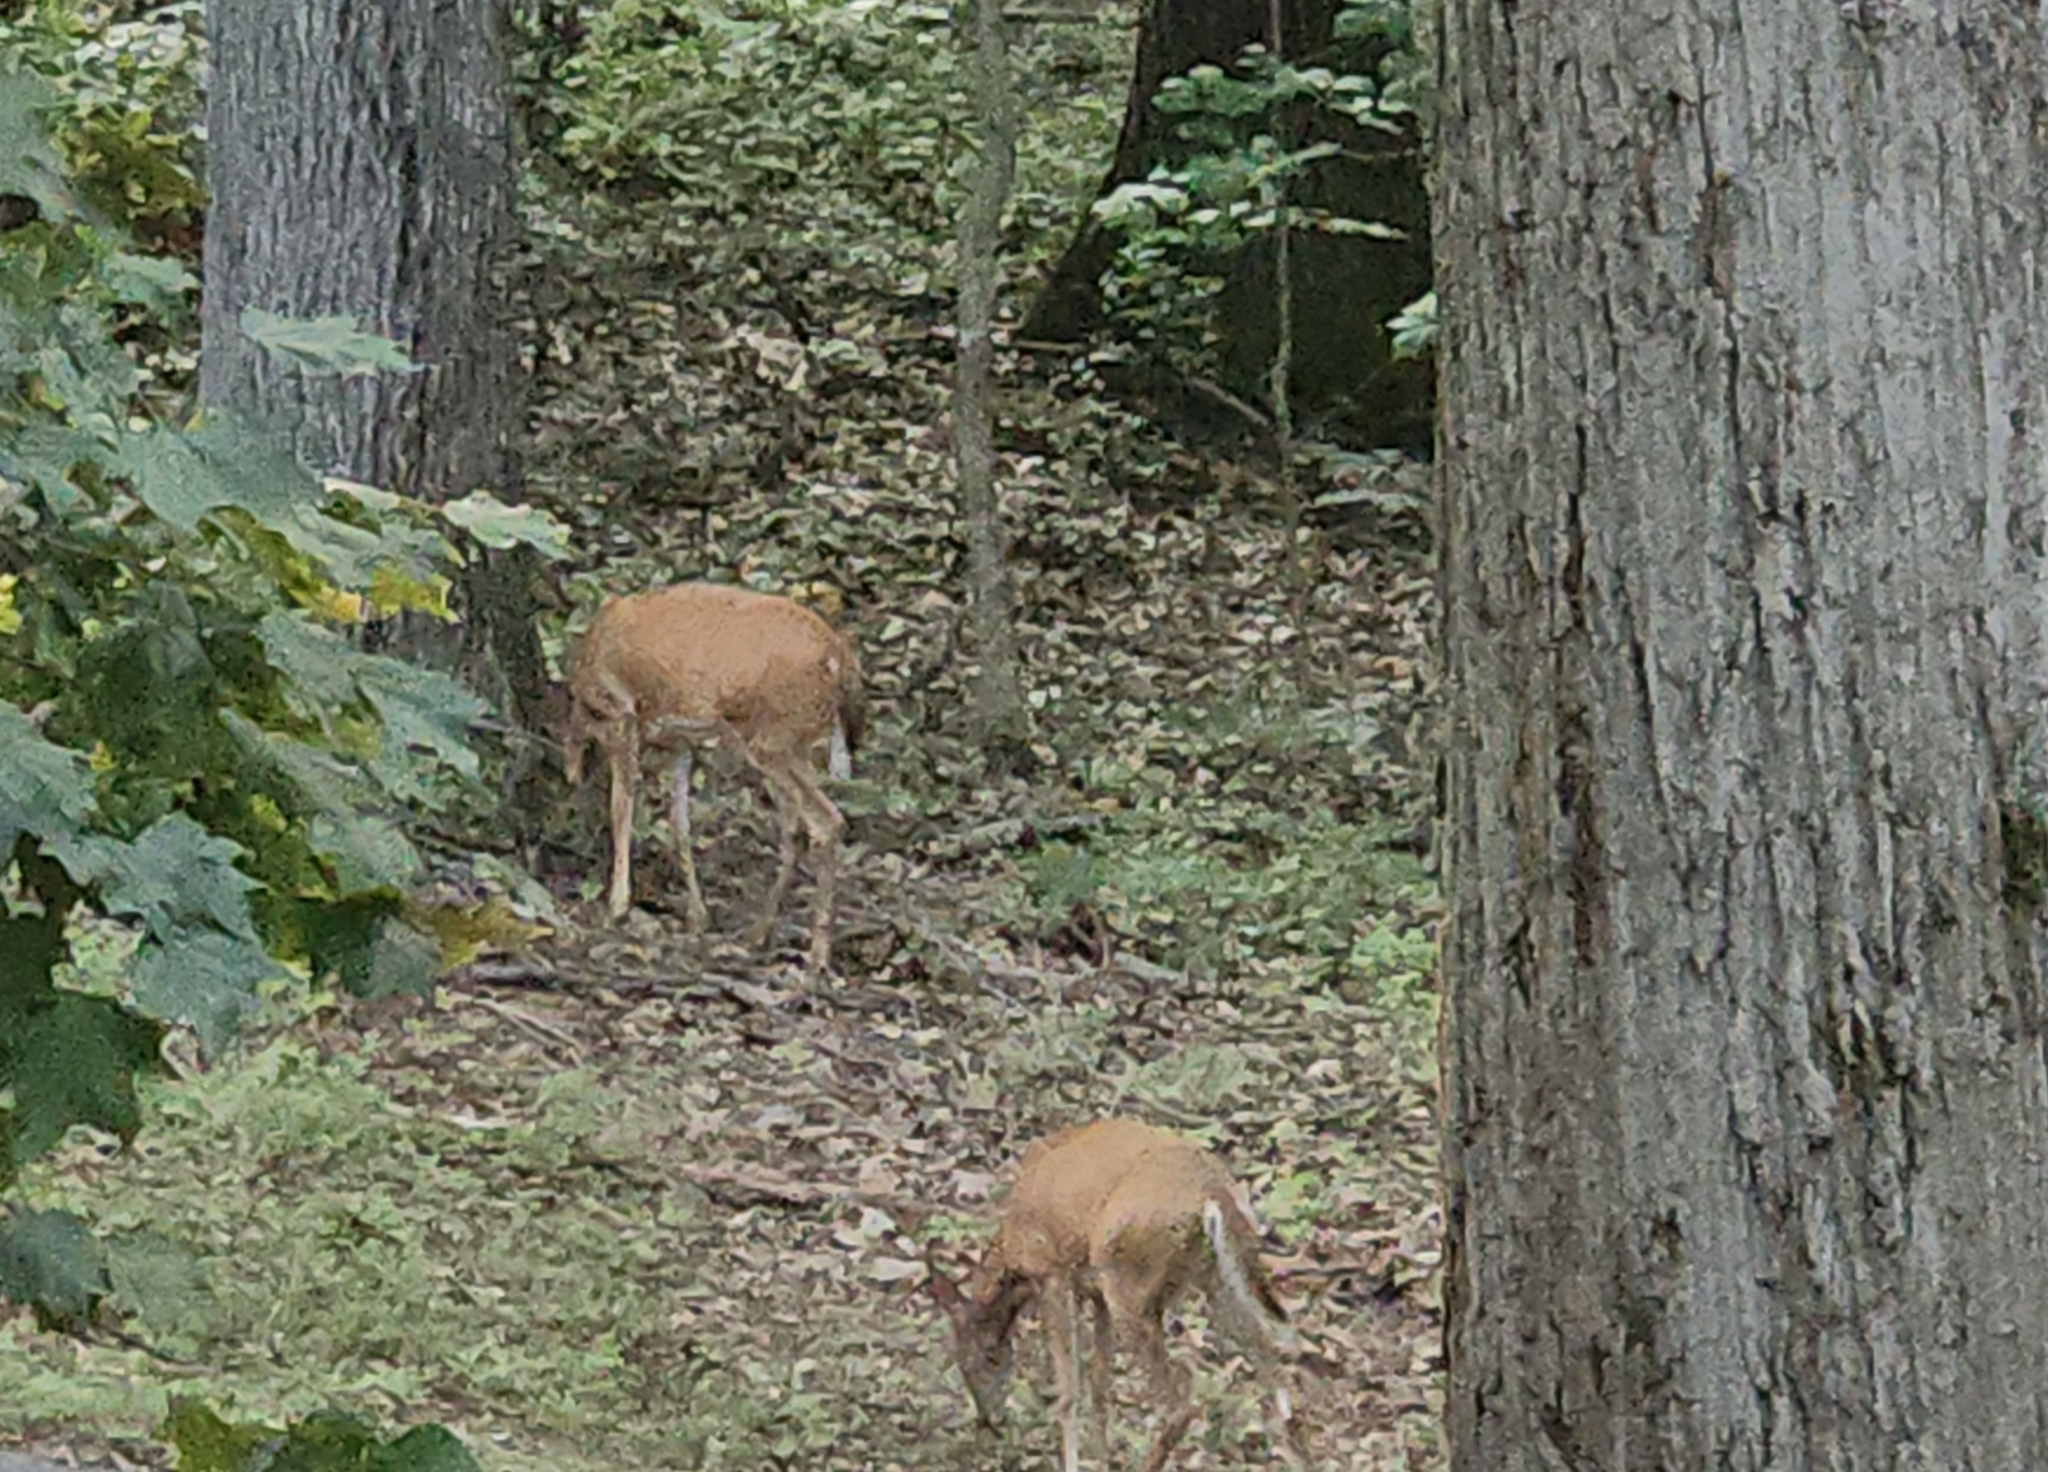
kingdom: Animalia
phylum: Chordata
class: Mammalia
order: Artiodactyla
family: Cervidae
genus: Odocoileus
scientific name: Odocoileus virginianus
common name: White-tailed deer
